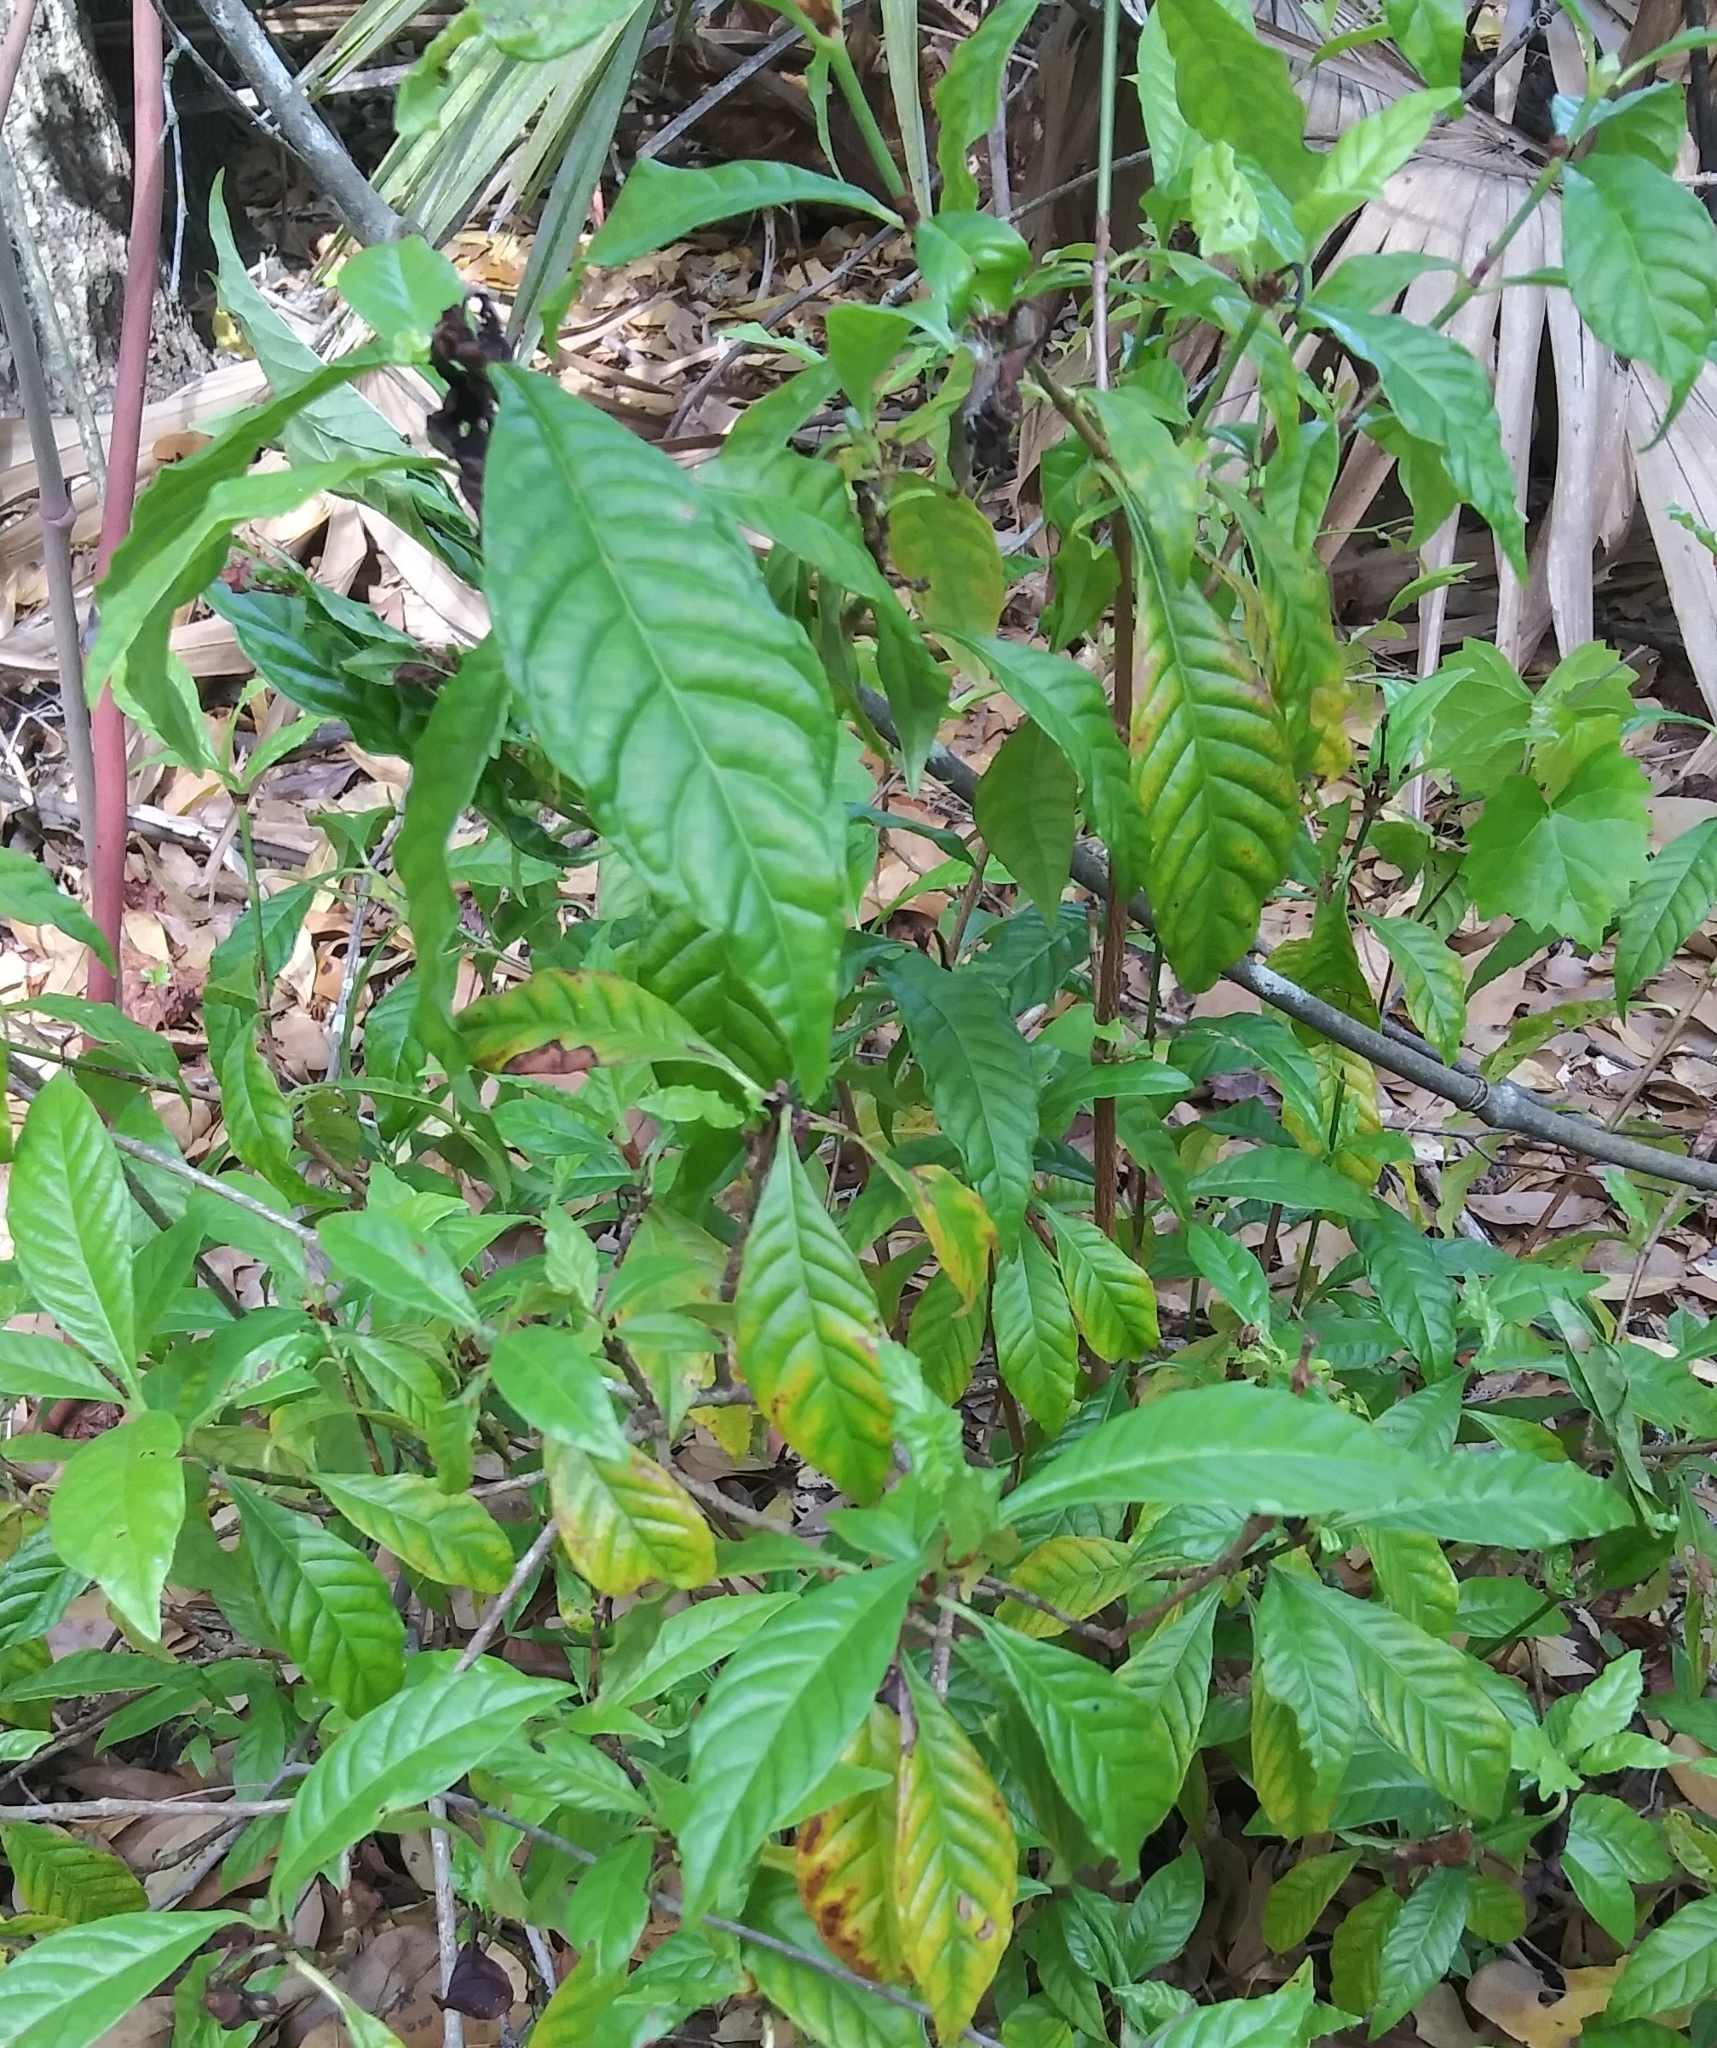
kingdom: Plantae
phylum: Tracheophyta
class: Magnoliopsida
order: Gentianales
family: Rubiaceae
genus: Psychotria
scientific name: Psychotria nervosa
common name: Bastard cankerberry
